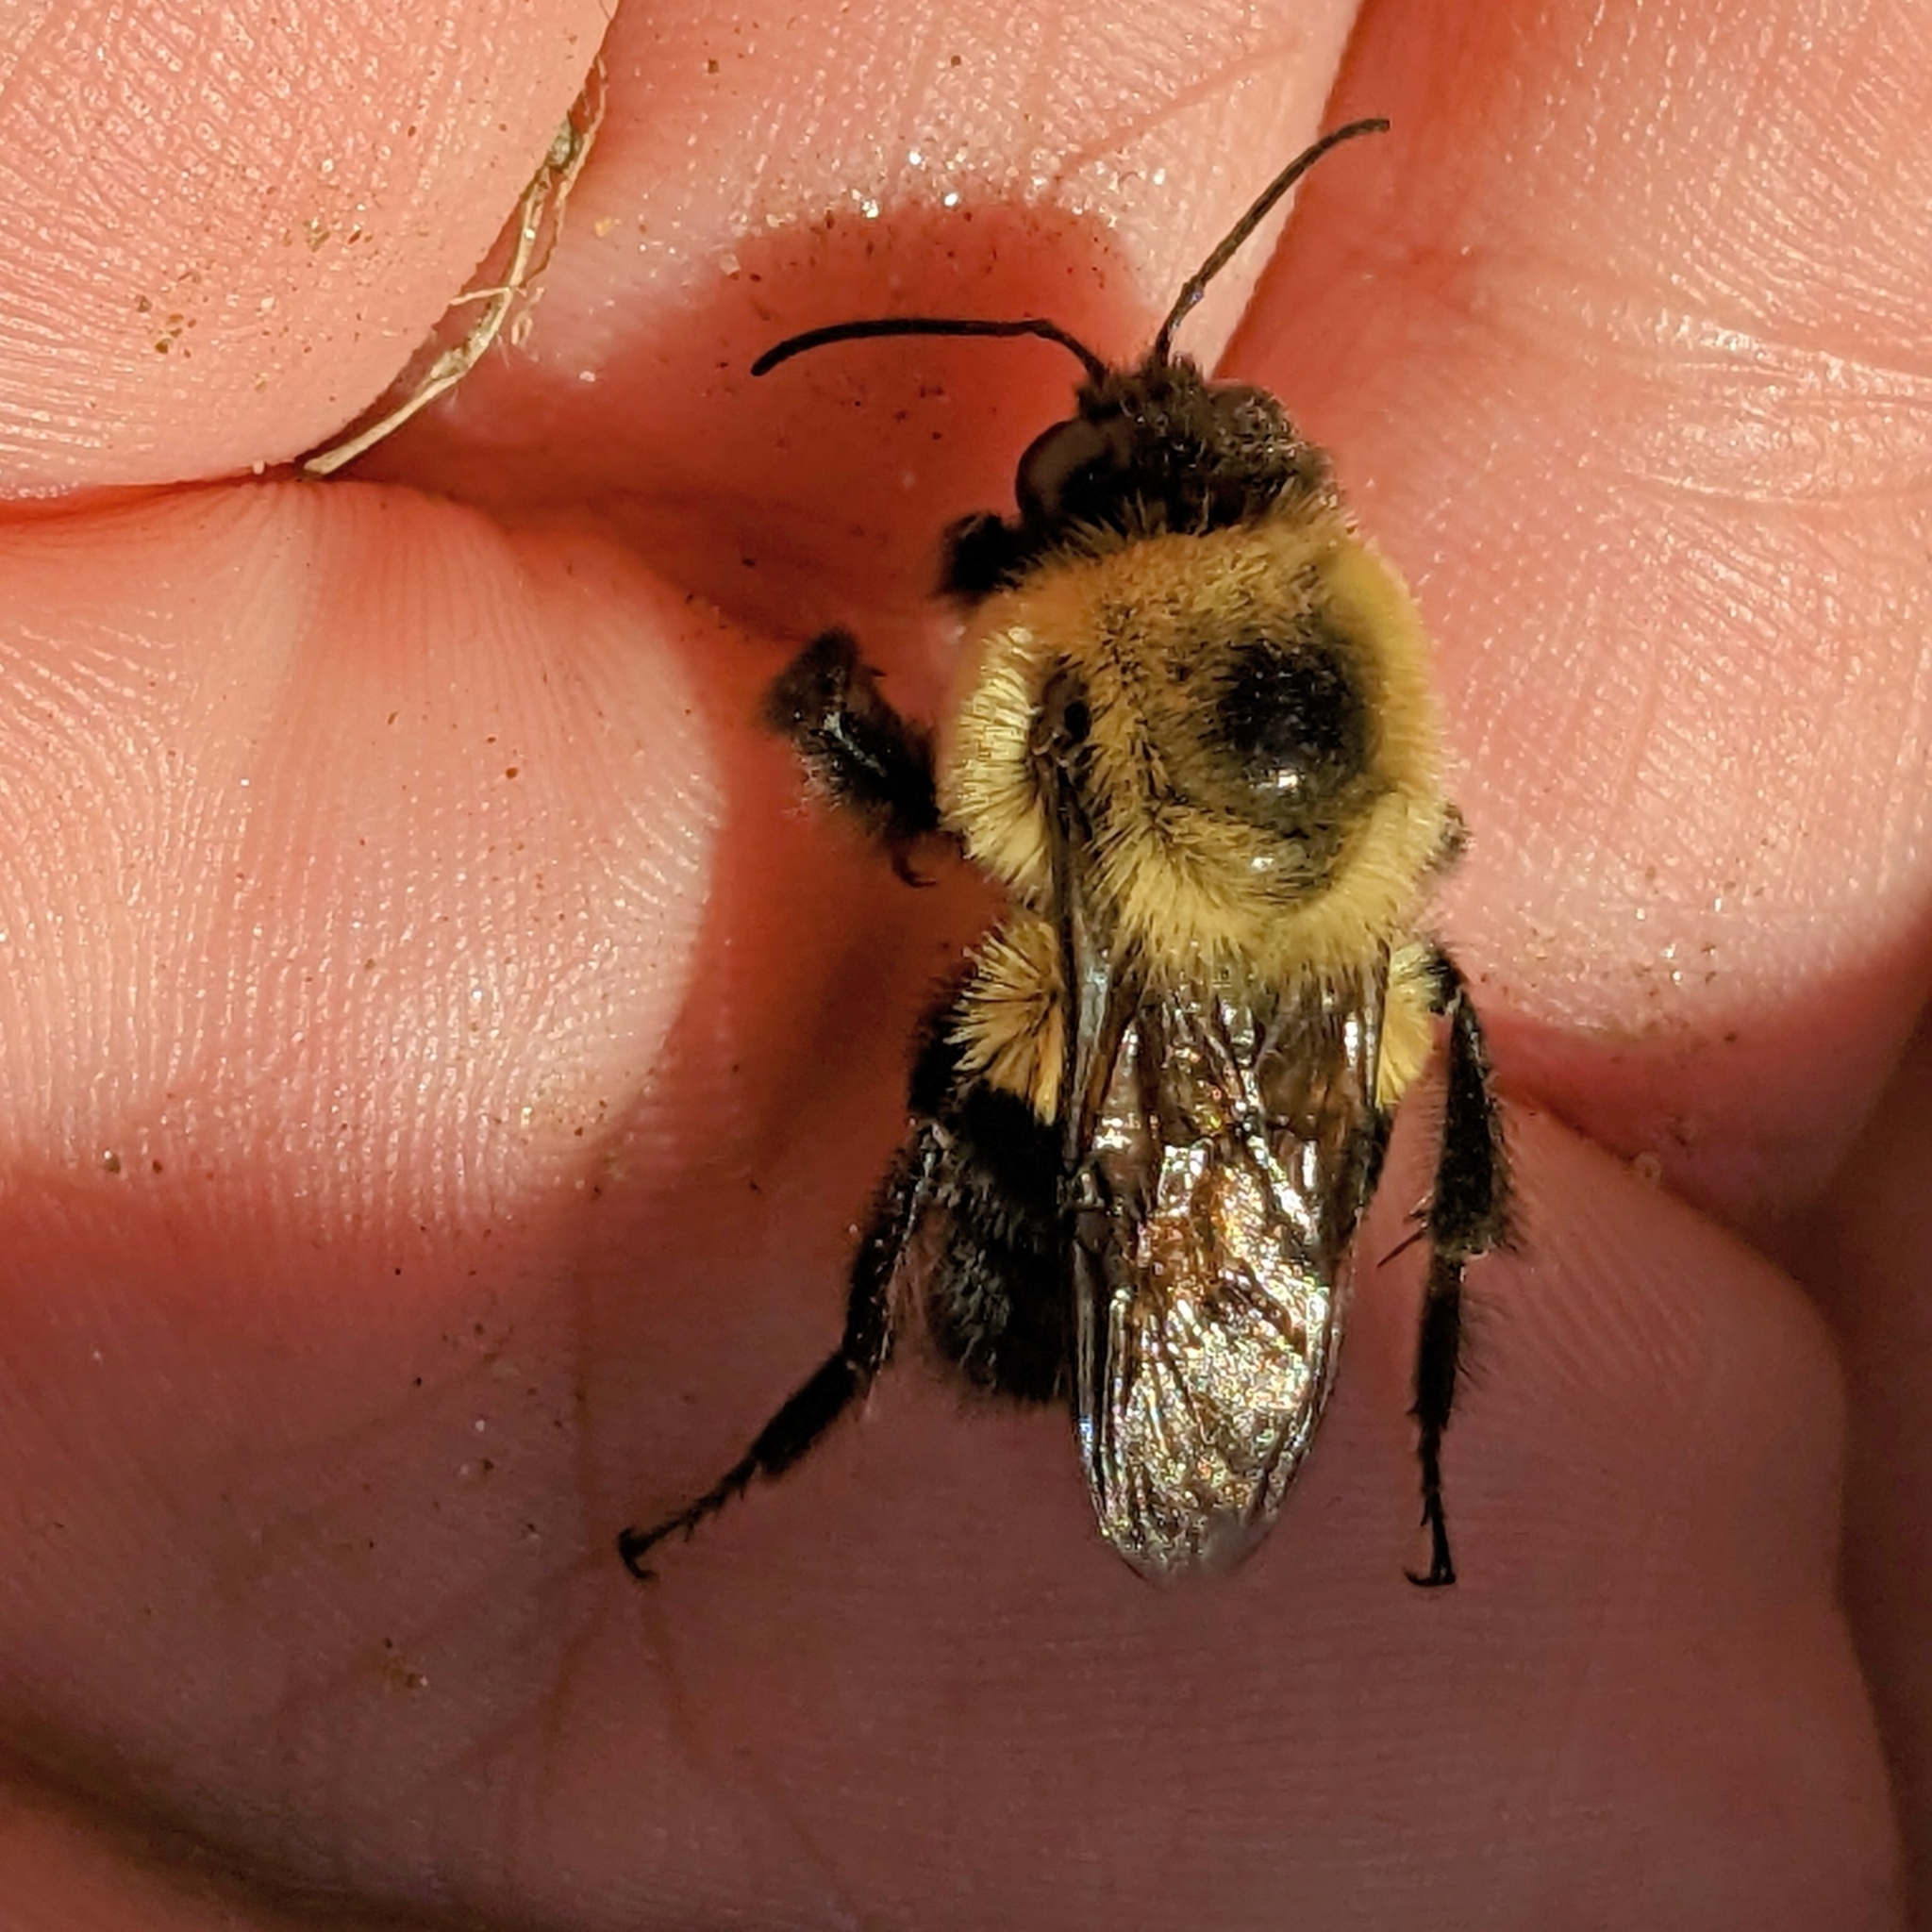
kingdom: Animalia
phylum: Arthropoda
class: Insecta
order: Hymenoptera
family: Apidae
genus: Bombus
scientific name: Bombus griseocollis
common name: Brown-belted bumble bee
